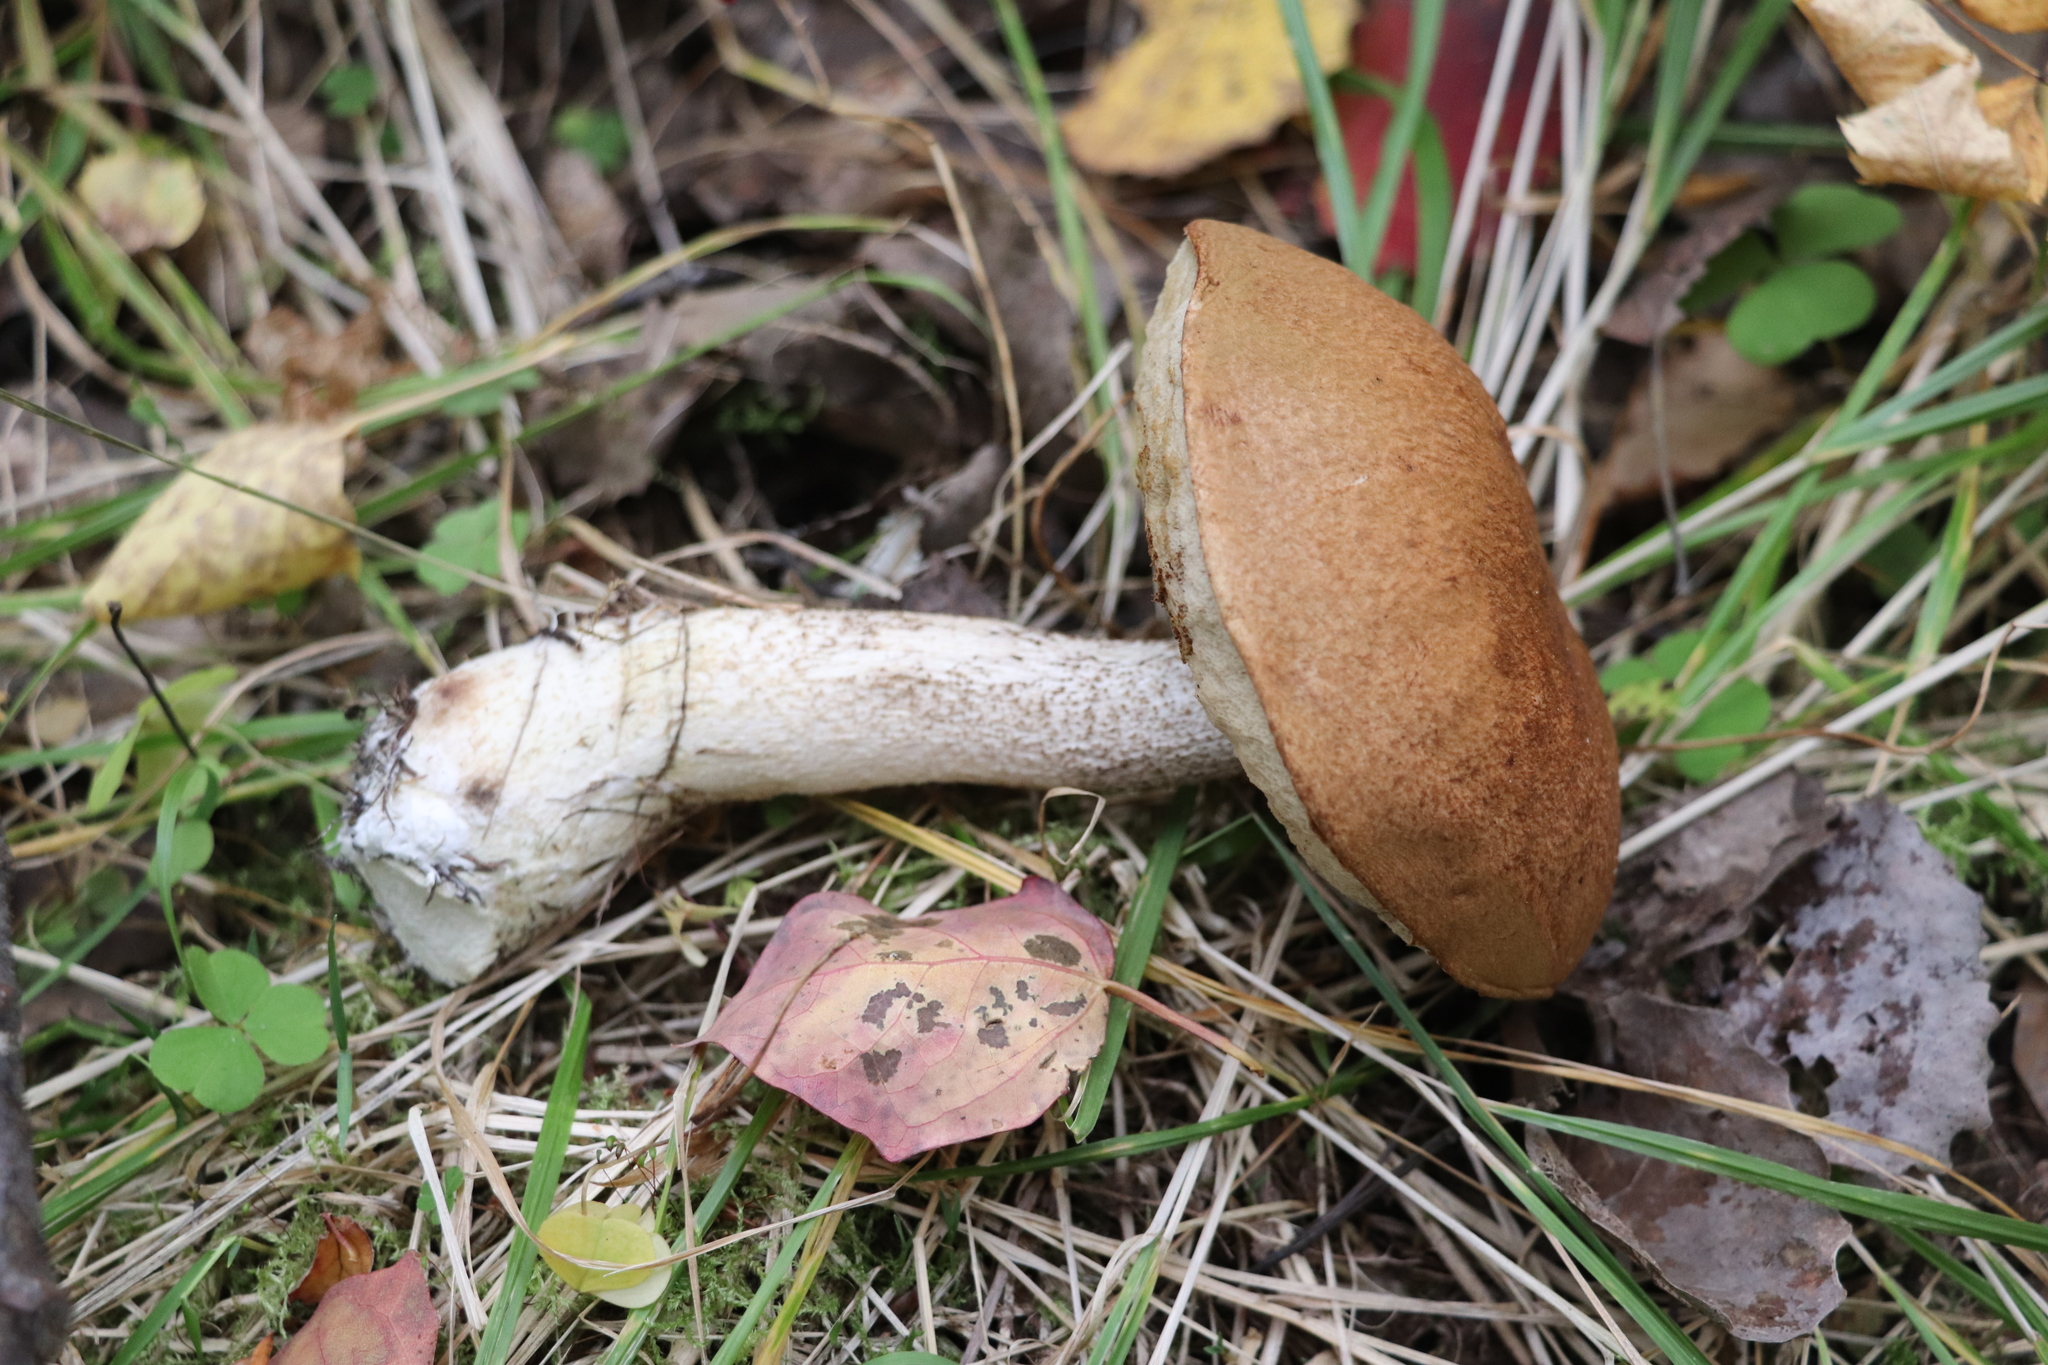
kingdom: Fungi
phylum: Basidiomycota
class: Agaricomycetes
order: Boletales
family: Boletaceae
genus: Leccinum
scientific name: Leccinum scabrum
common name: Blushing bolete
